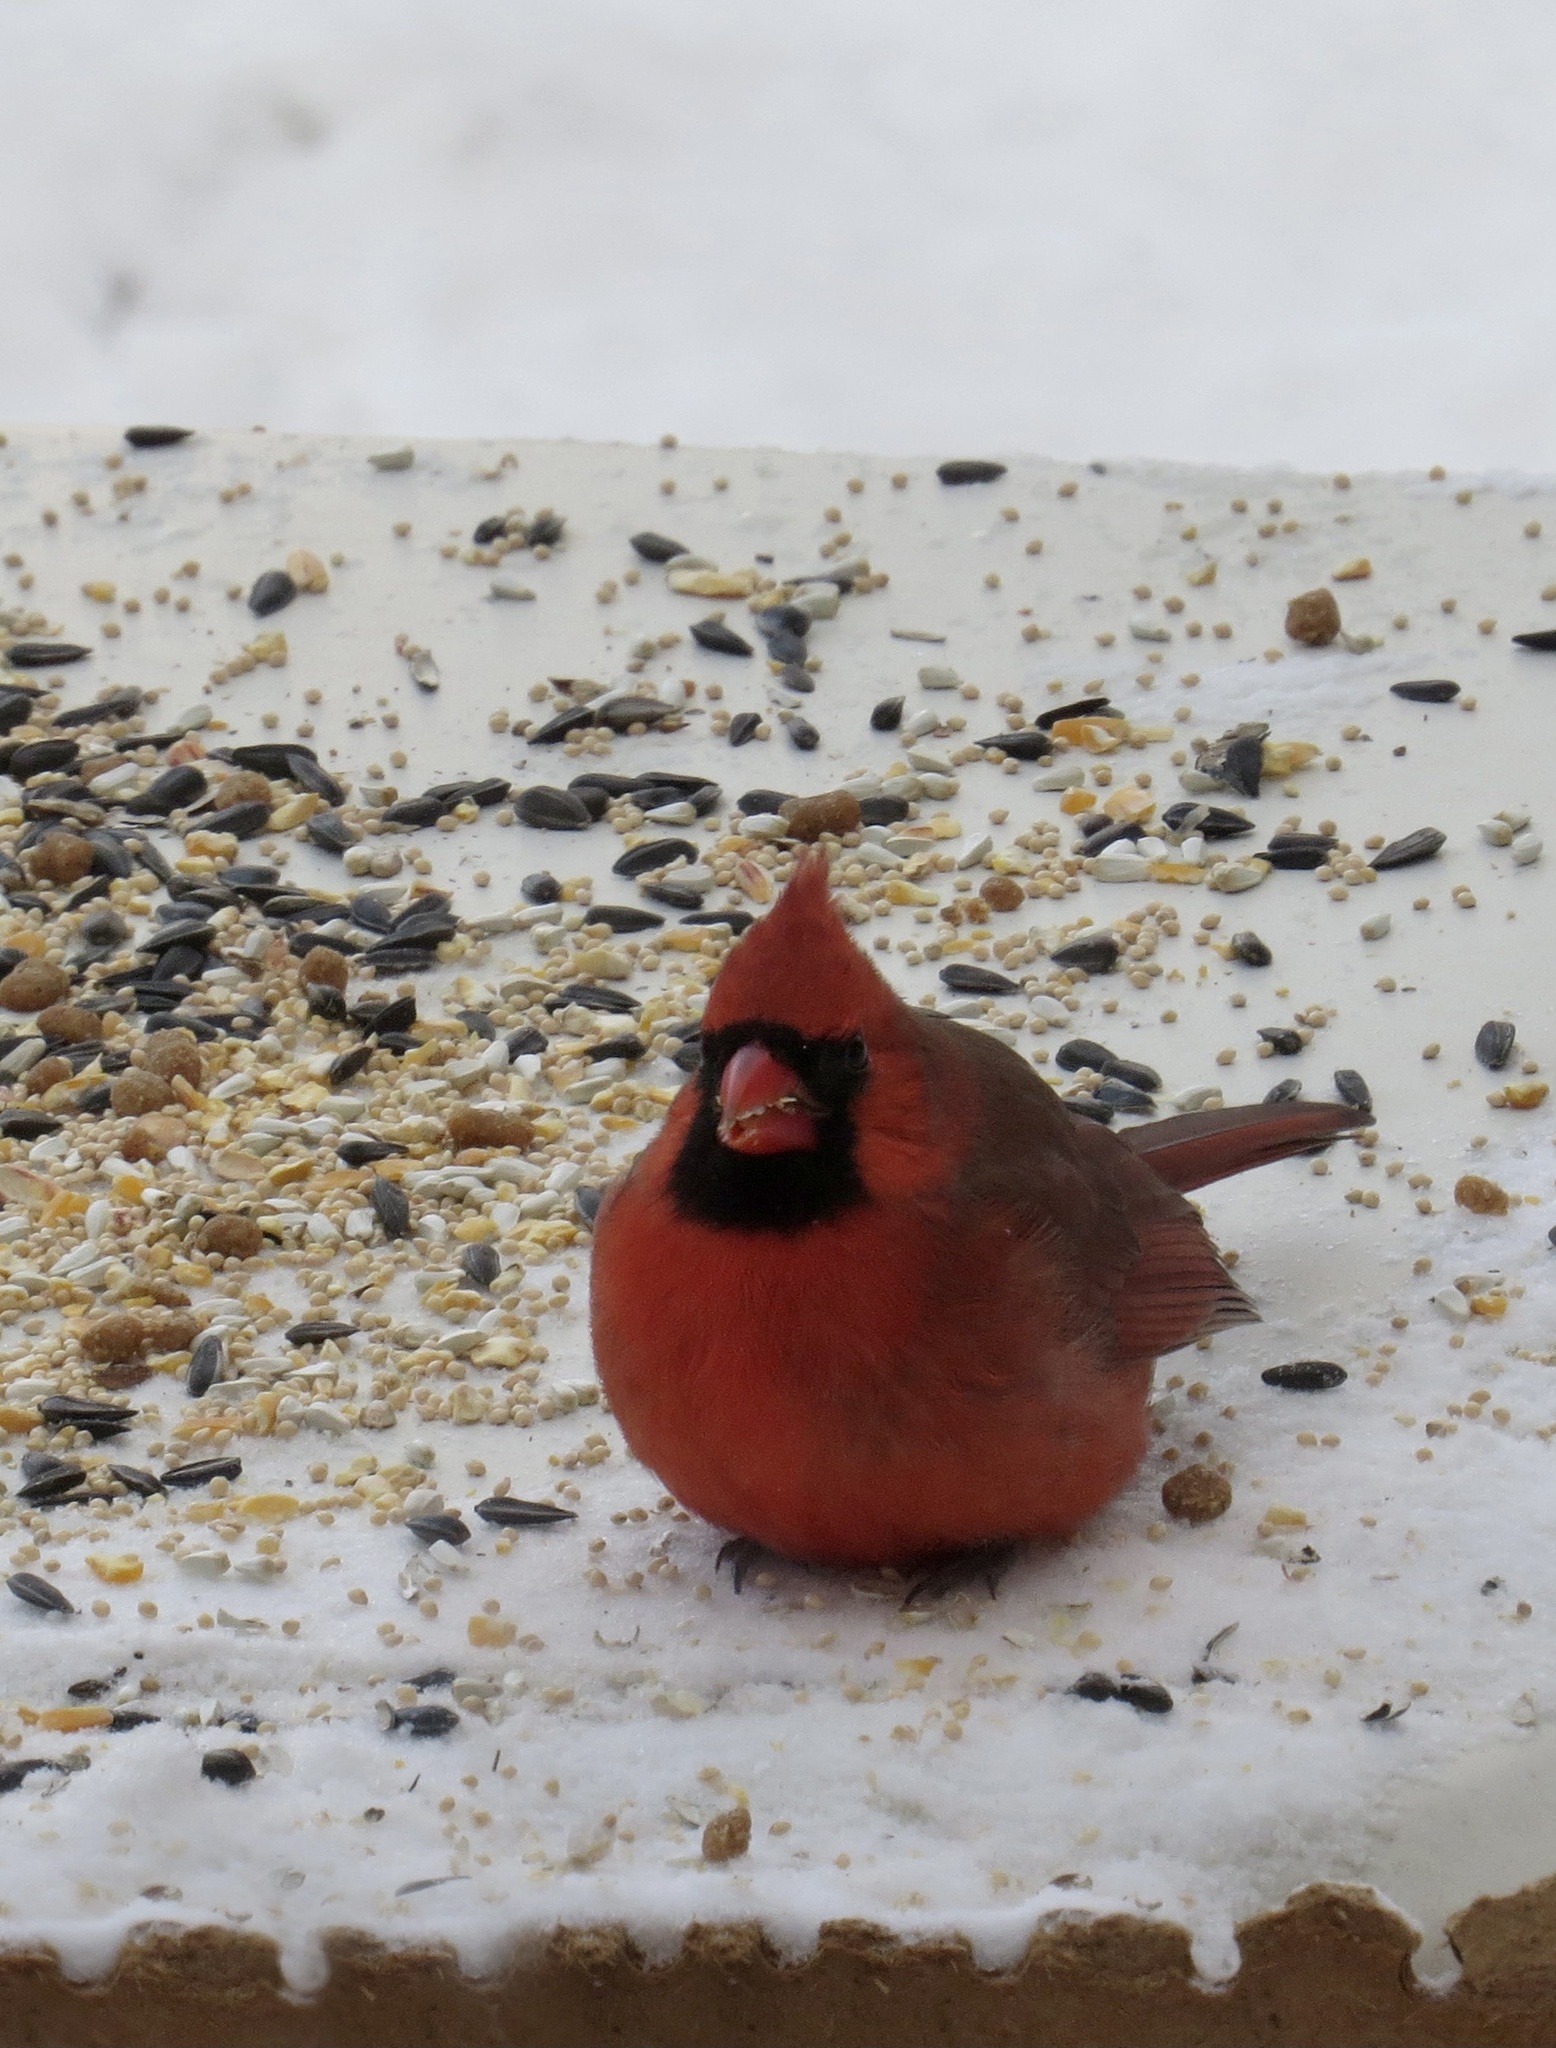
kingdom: Animalia
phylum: Chordata
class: Aves
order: Passeriformes
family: Cardinalidae
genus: Cardinalis
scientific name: Cardinalis cardinalis
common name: Northern cardinal
